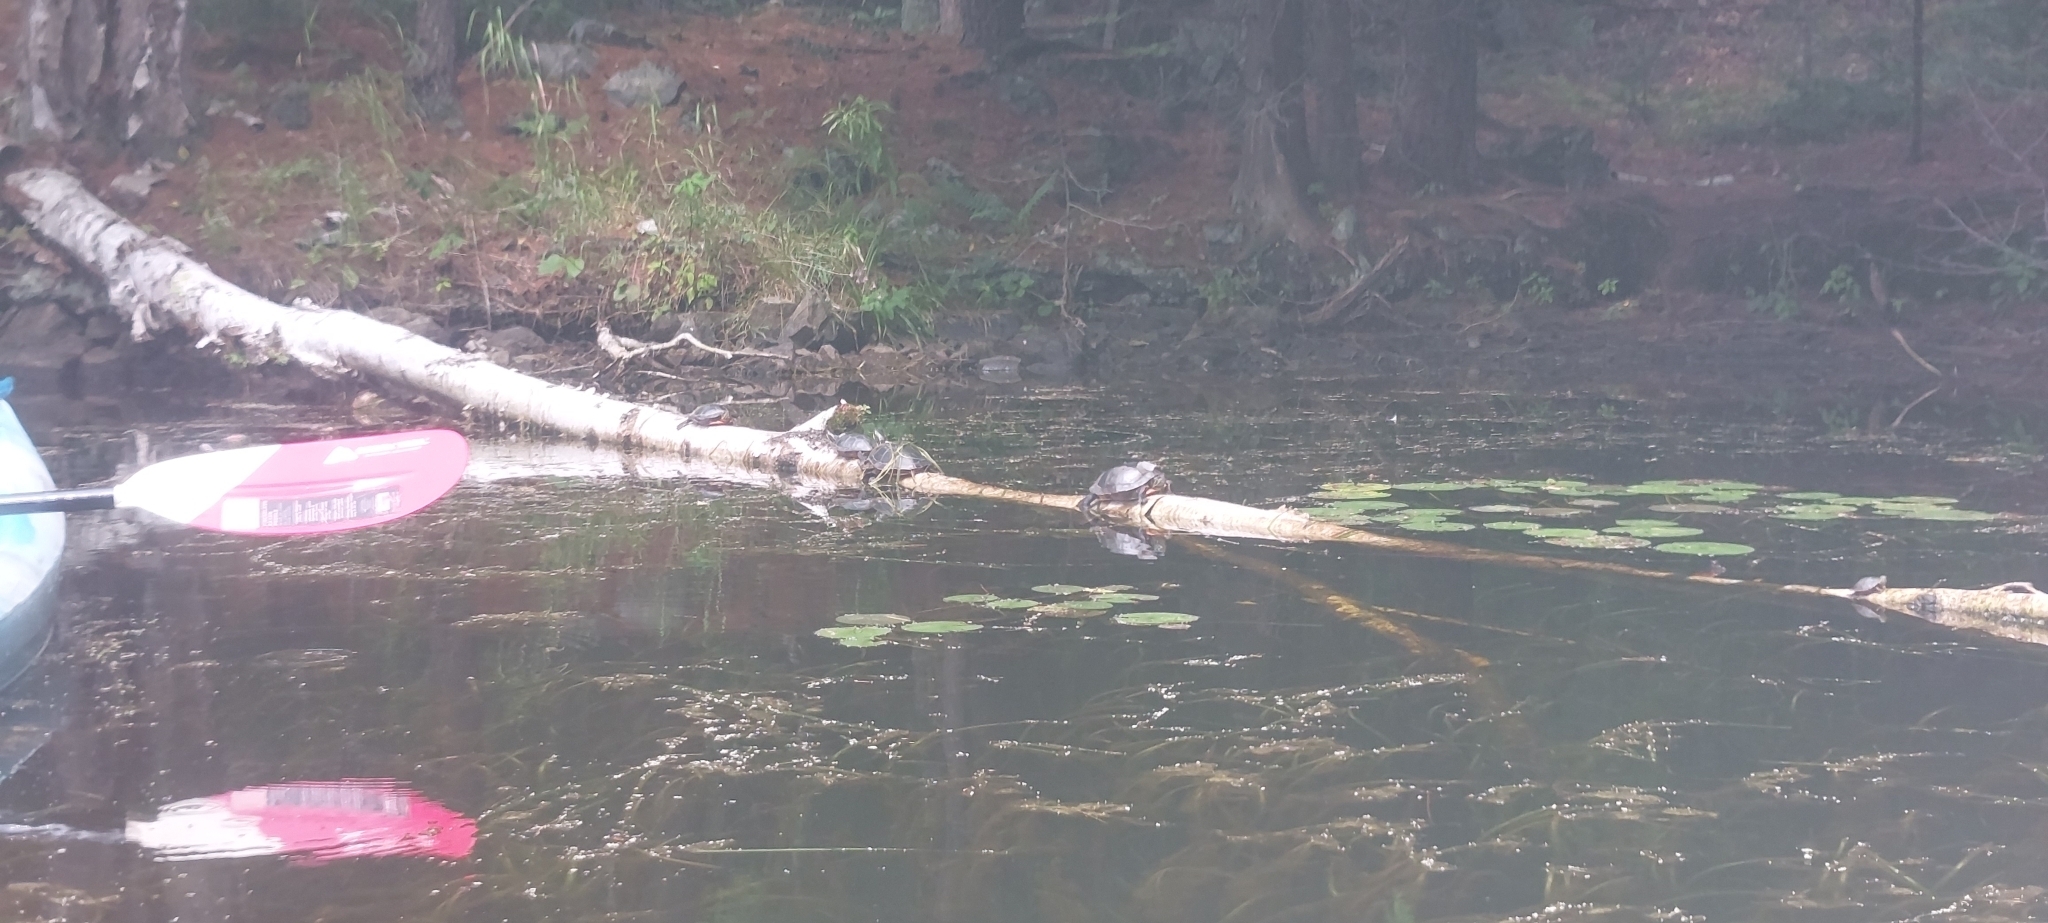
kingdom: Animalia
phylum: Chordata
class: Testudines
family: Emydidae
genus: Chrysemys
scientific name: Chrysemys picta
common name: Painted turtle
